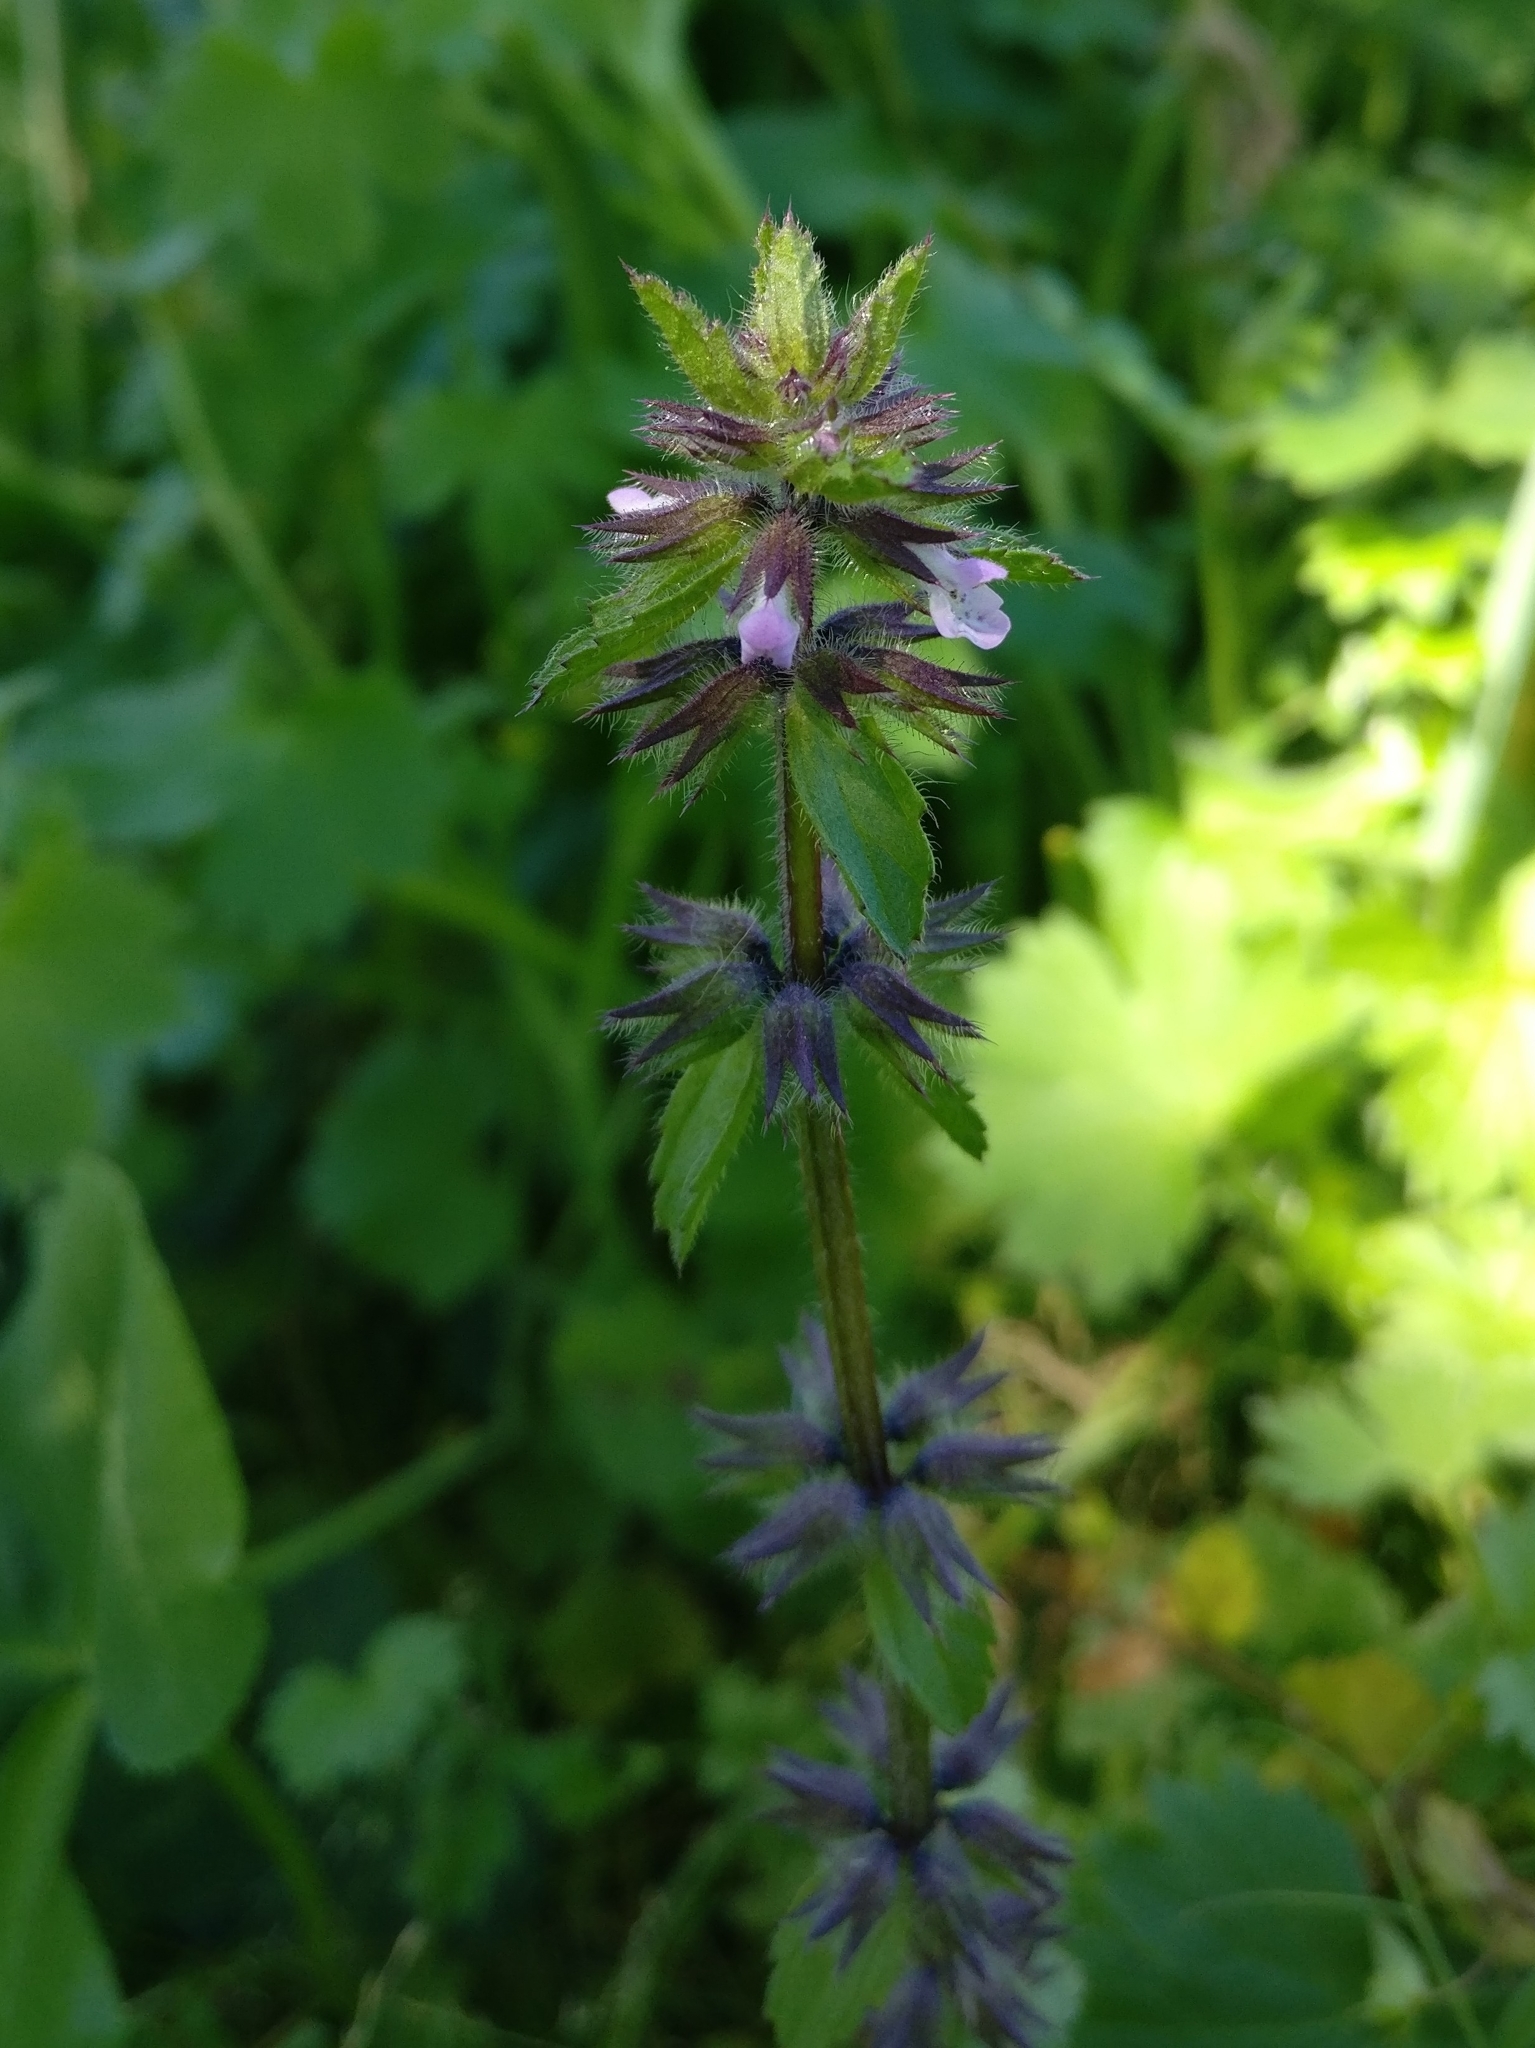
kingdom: Plantae
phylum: Tracheophyta
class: Magnoliopsida
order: Lamiales
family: Lamiaceae
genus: Stachys
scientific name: Stachys arvensis
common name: Field woundwort
